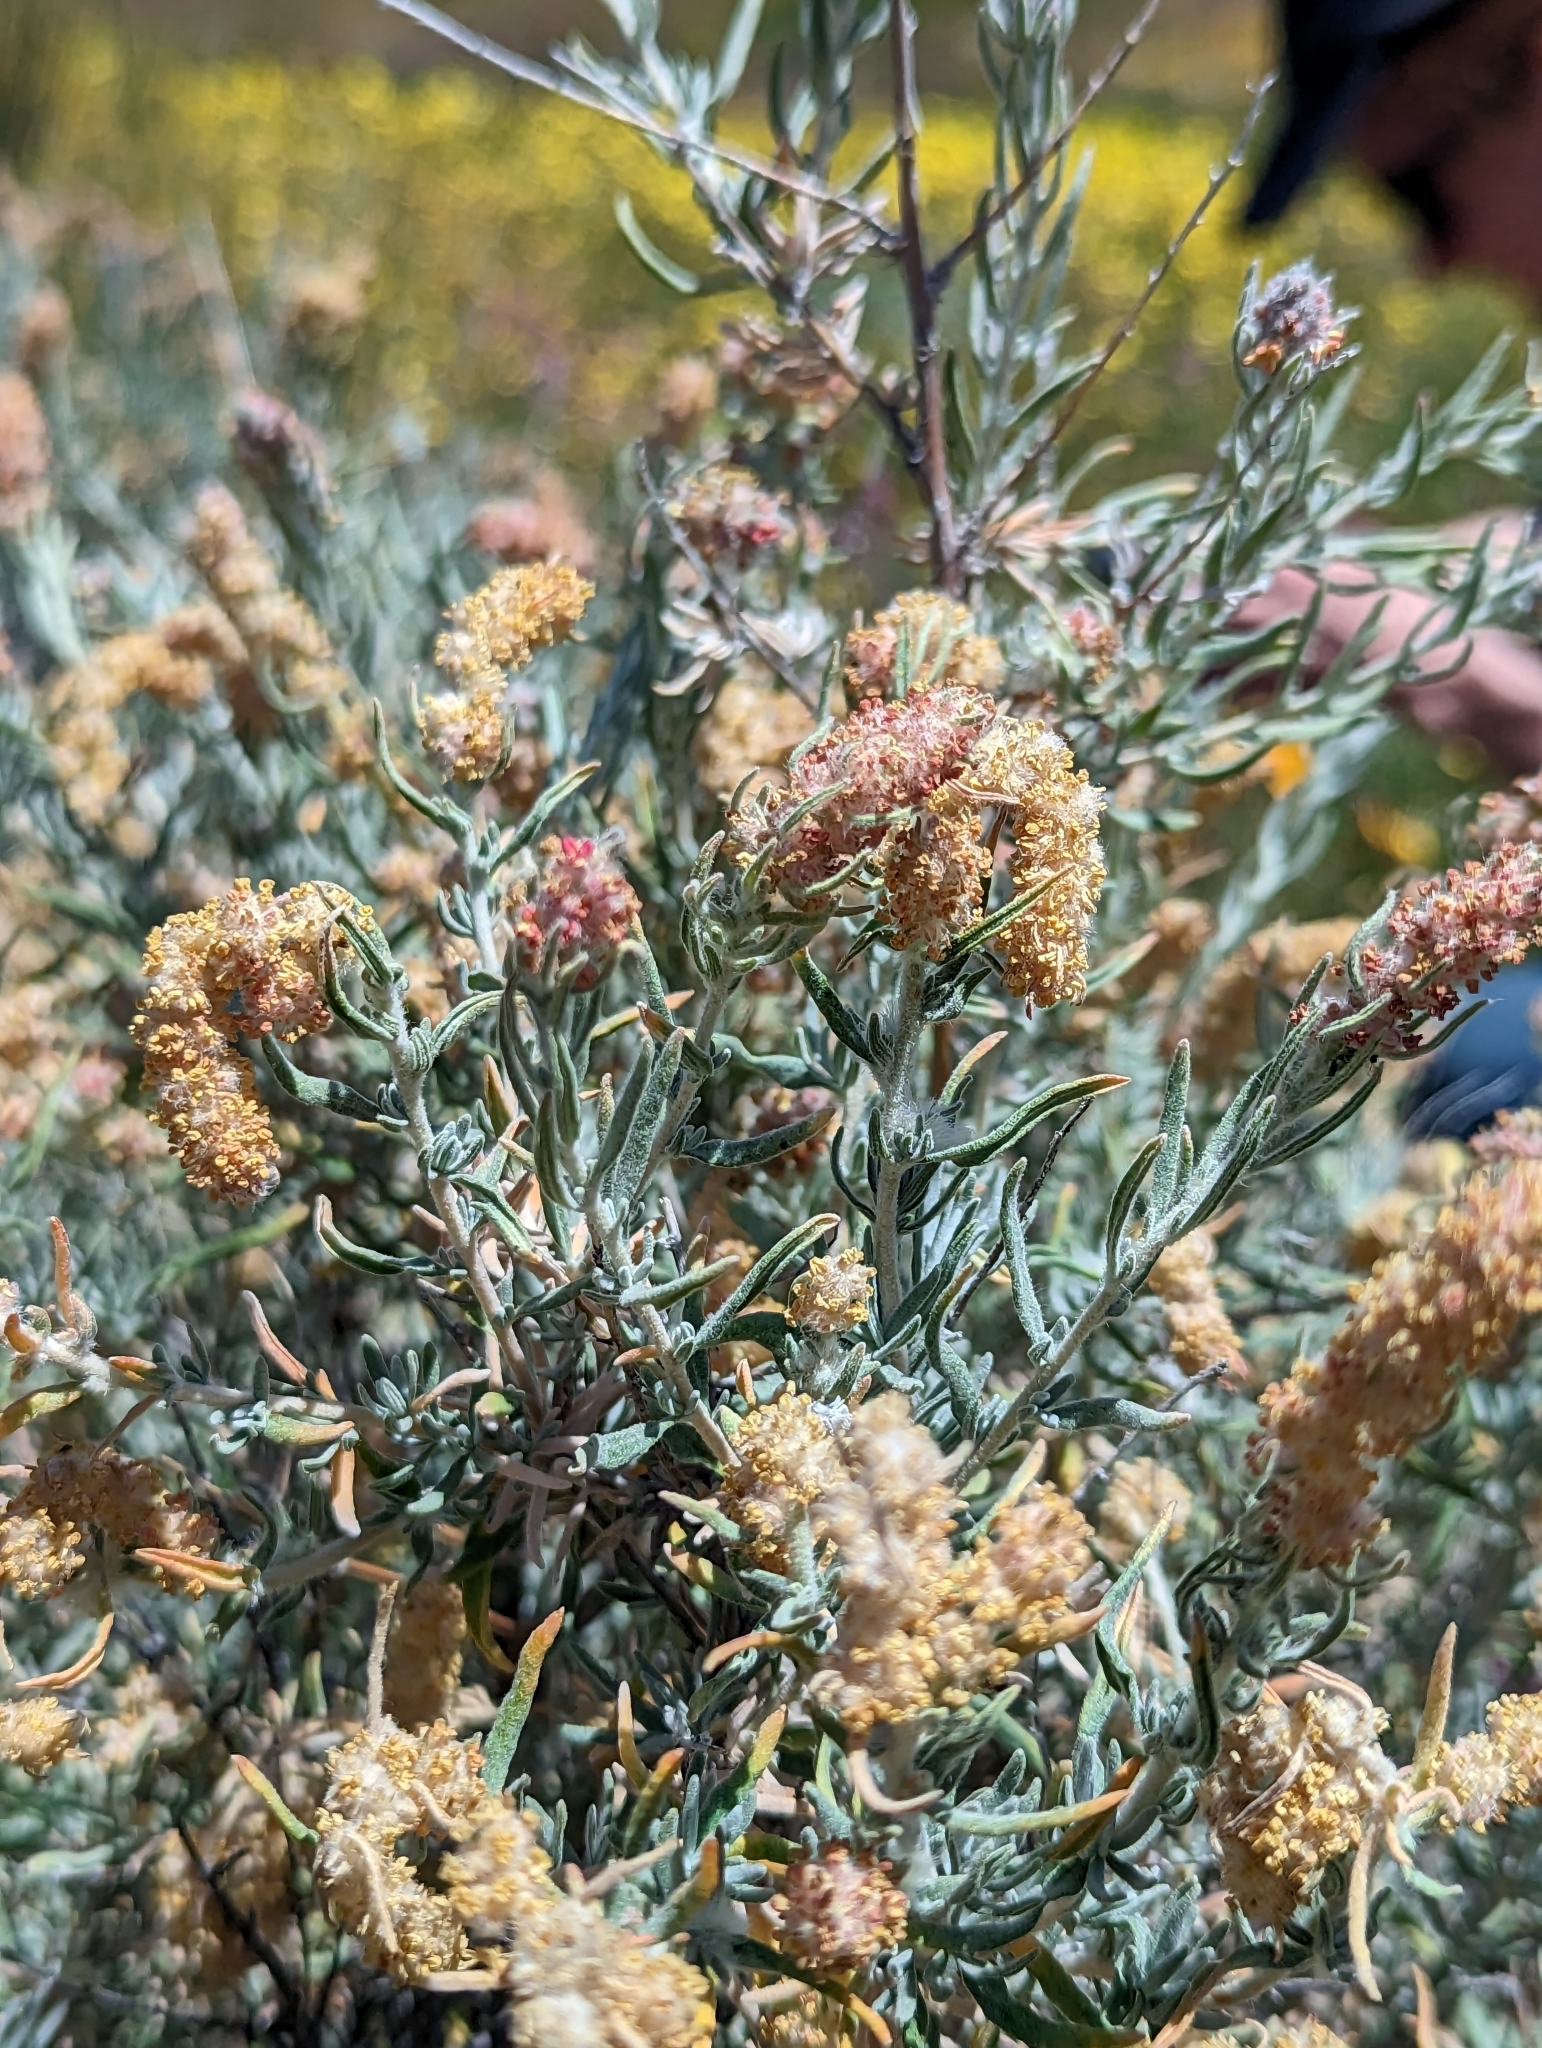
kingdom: Plantae
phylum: Tracheophyta
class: Magnoliopsida
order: Caryophyllales
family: Amaranthaceae
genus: Krascheninnikovia
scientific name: Krascheninnikovia lanata
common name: Winterfat
